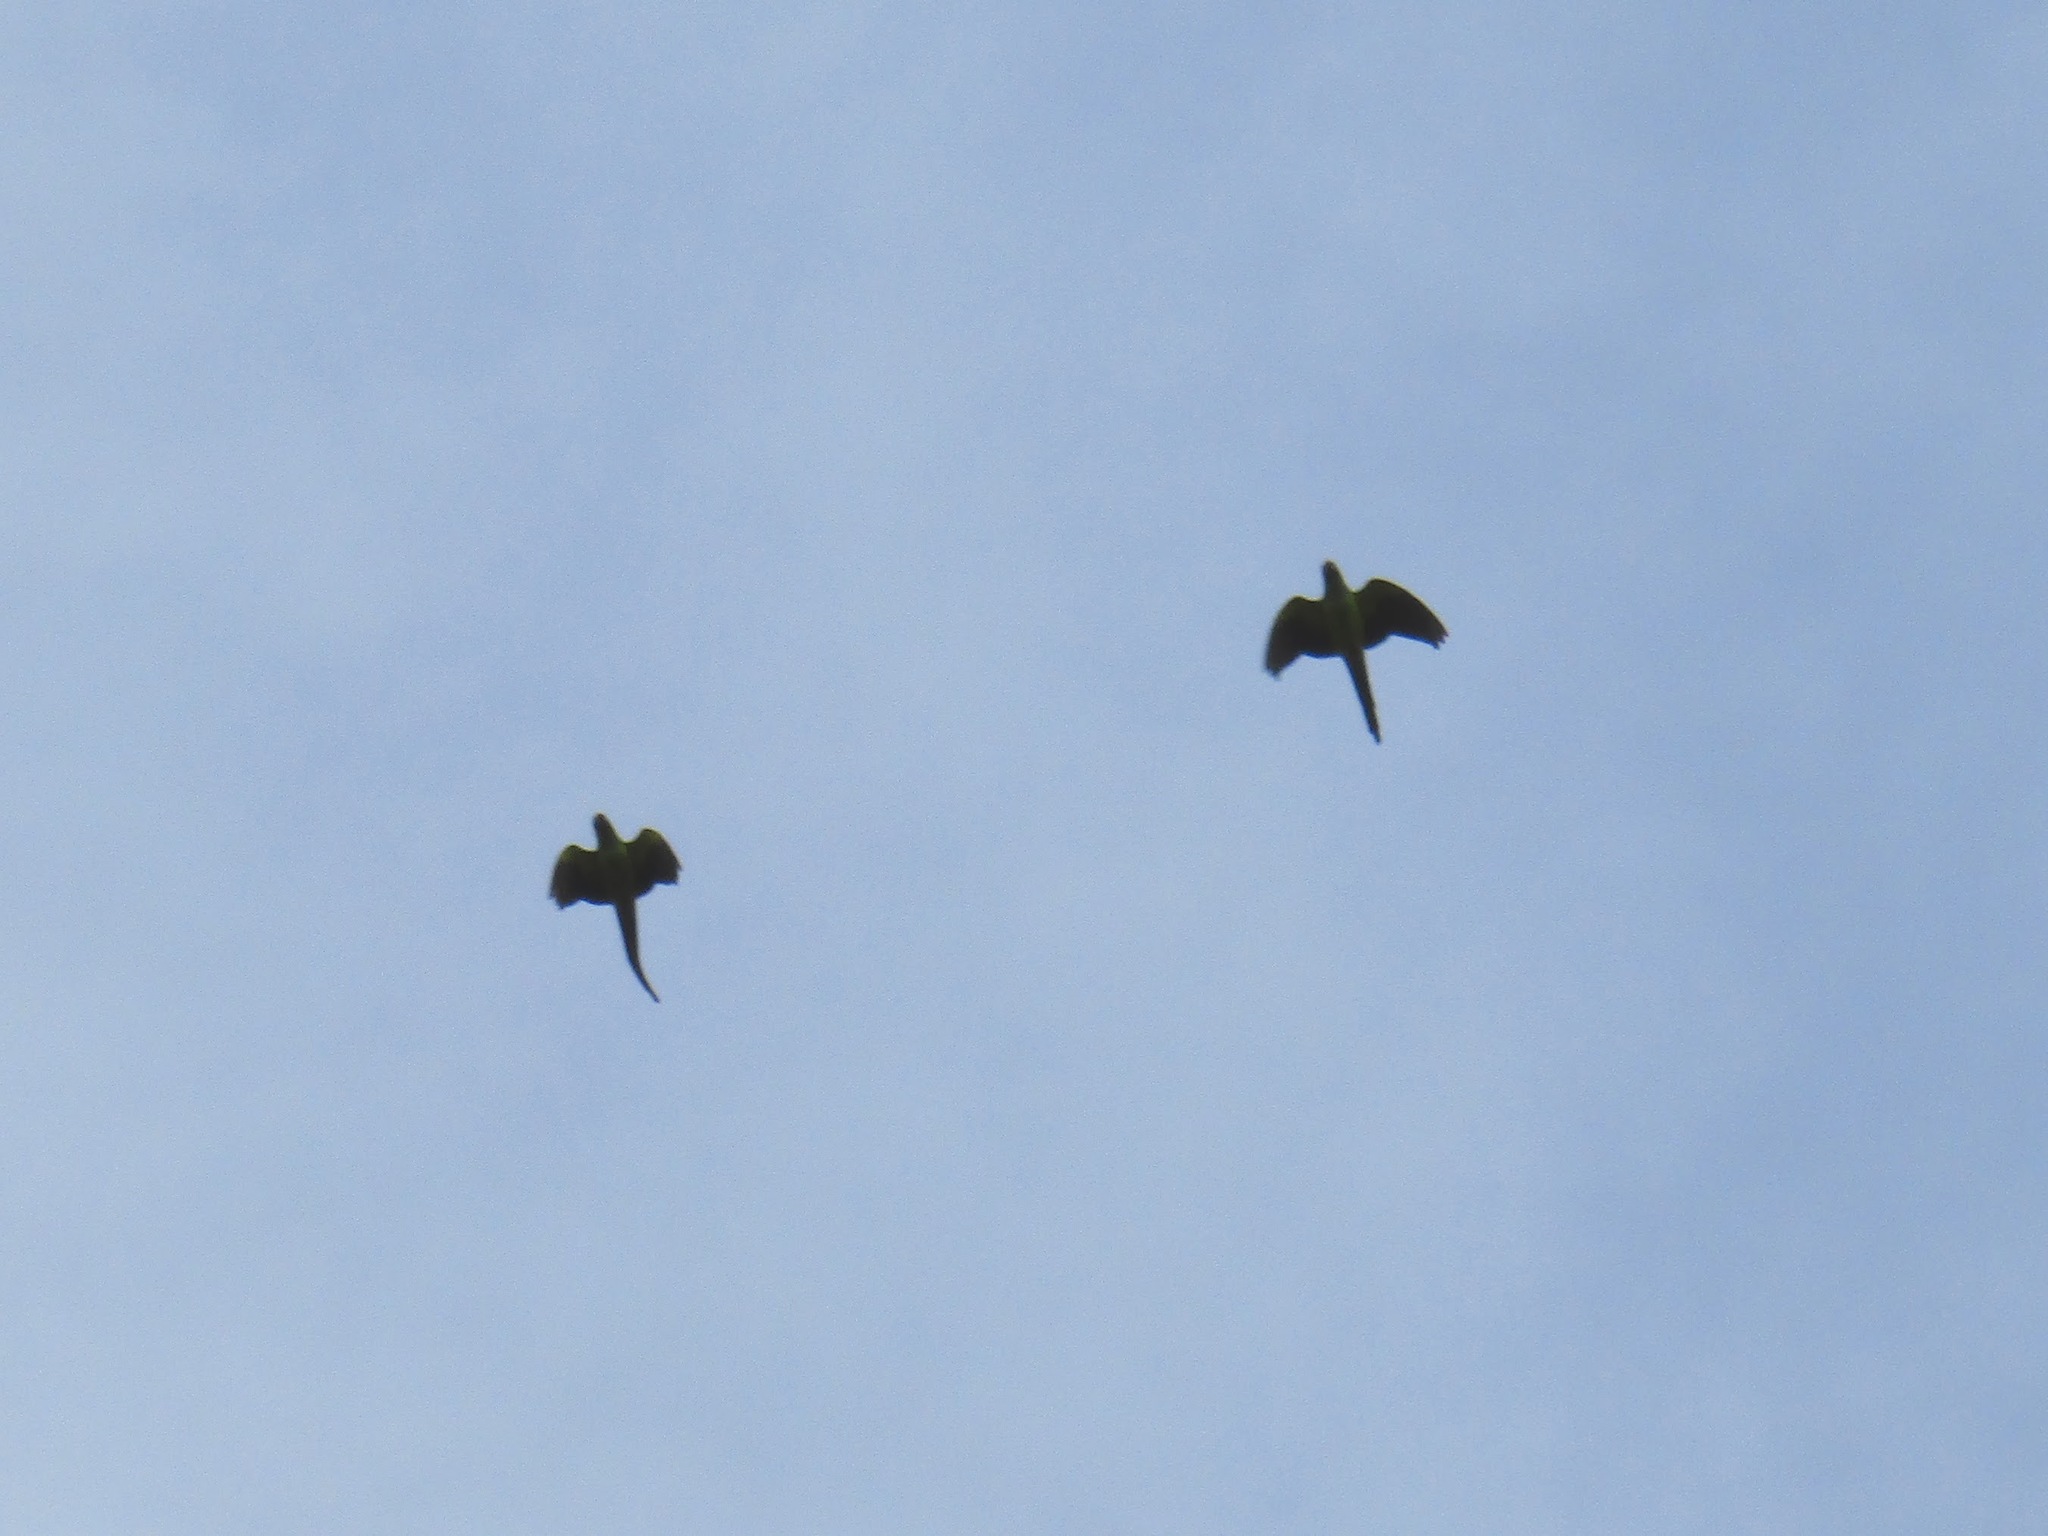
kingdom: Animalia
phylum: Chordata
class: Aves
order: Psittaciformes
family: Psittacidae
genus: Nandayus
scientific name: Nandayus nenday
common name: Nanday parakeet
